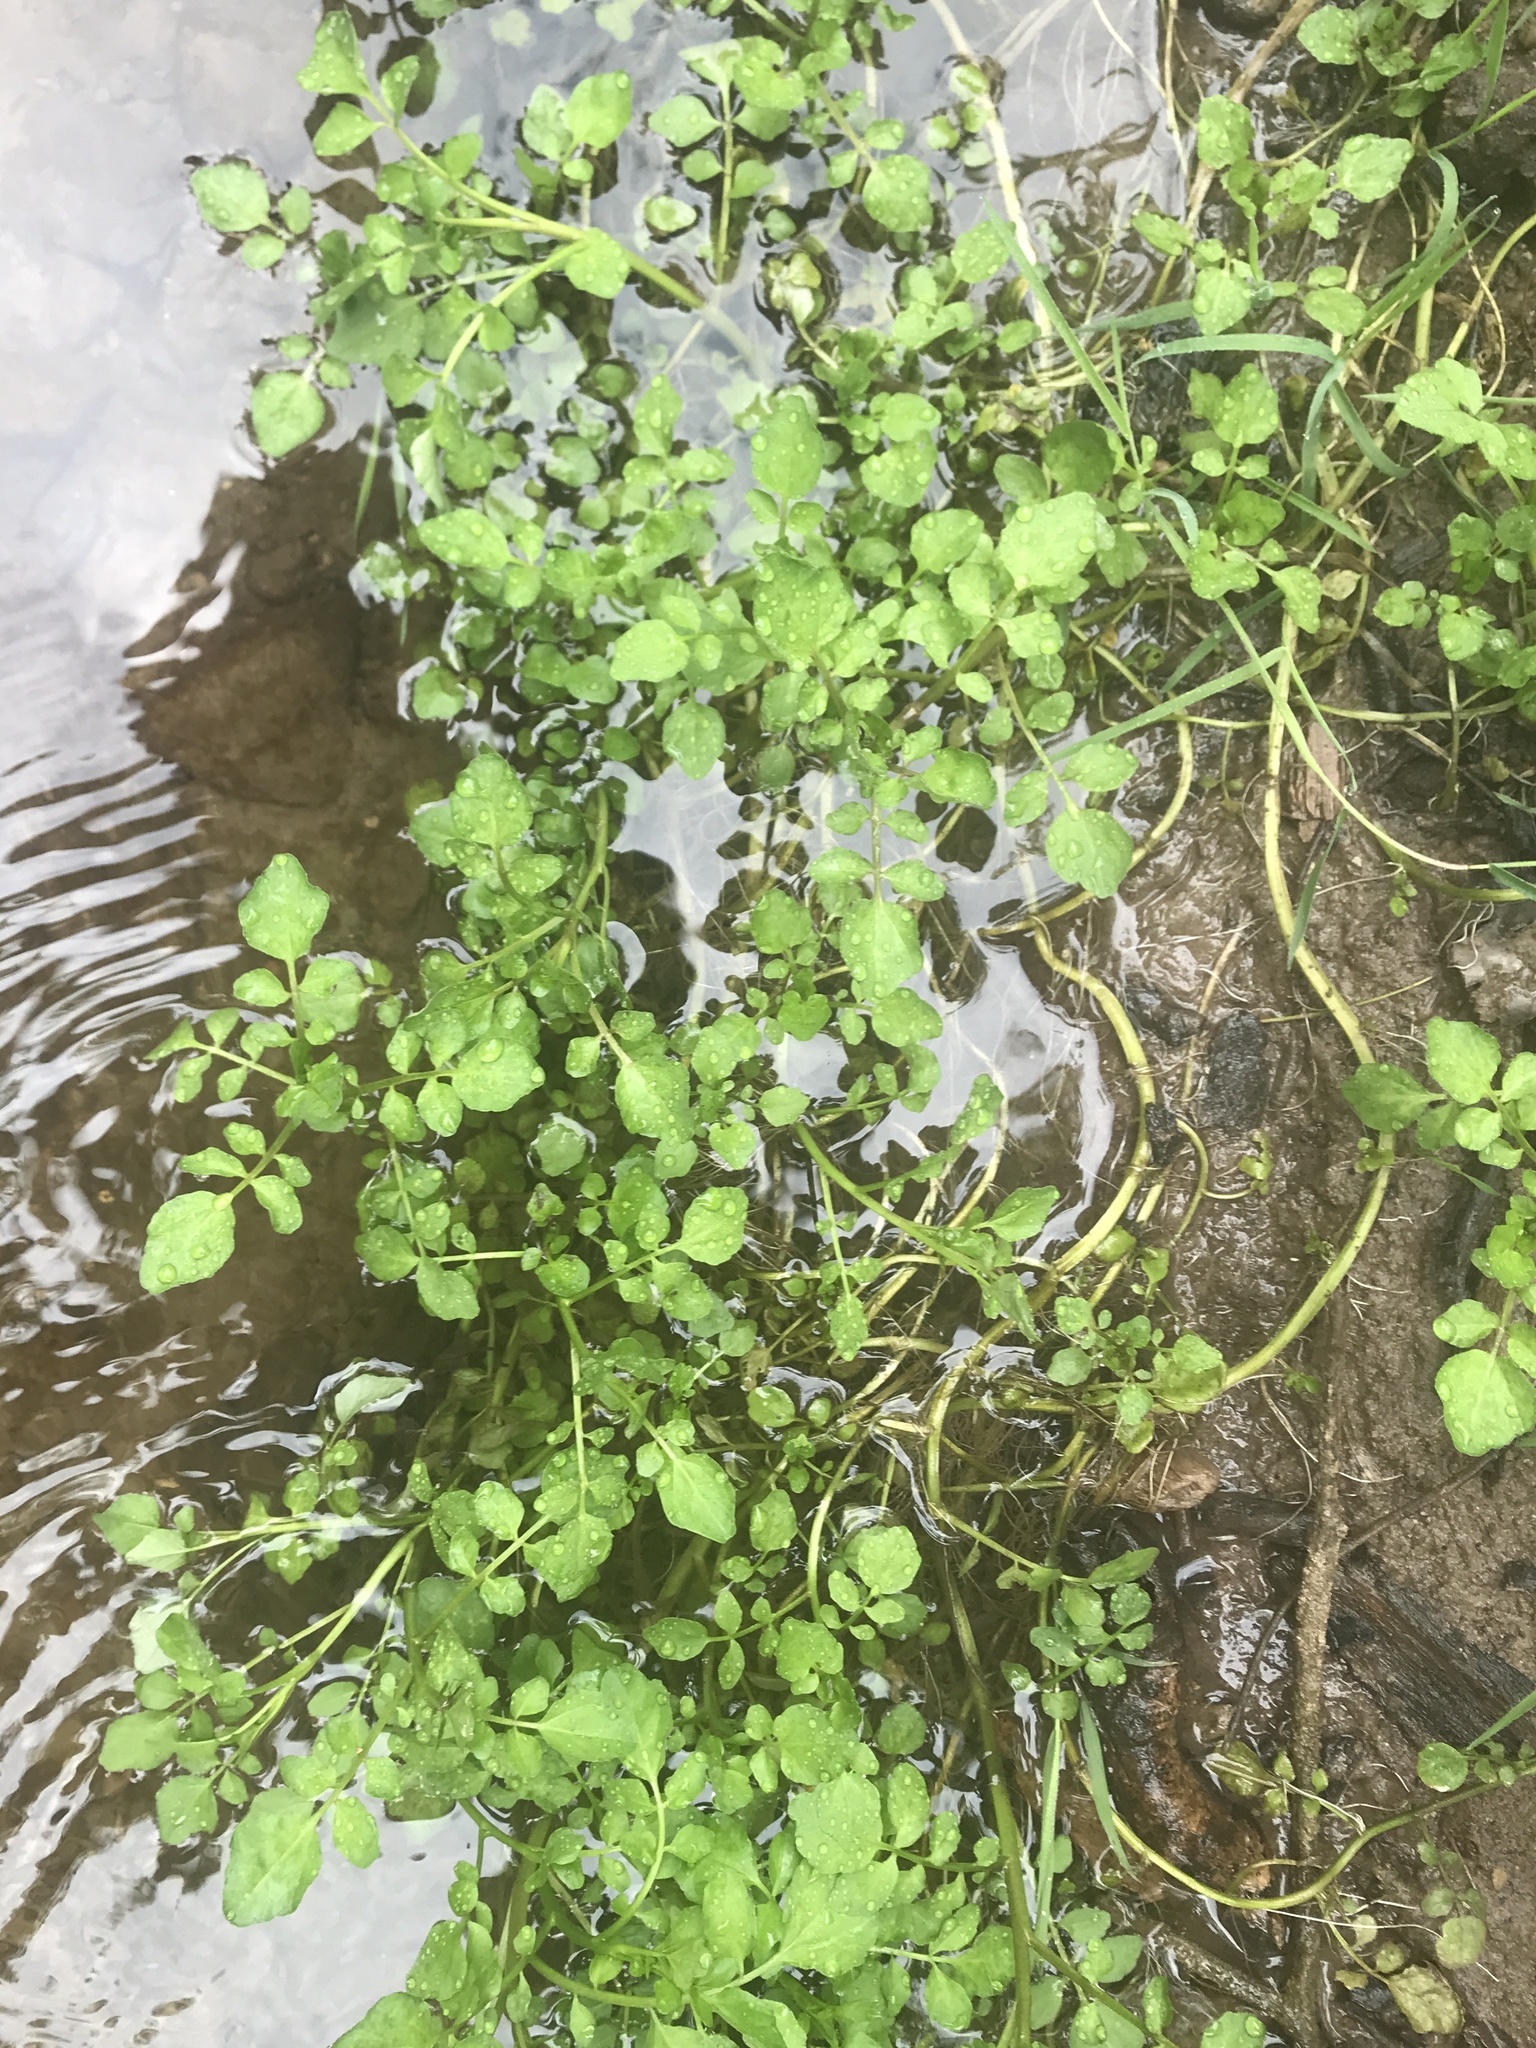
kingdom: Plantae
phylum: Tracheophyta
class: Magnoliopsida
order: Brassicales
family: Brassicaceae
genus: Nasturtium
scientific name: Nasturtium officinale
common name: Watercress
